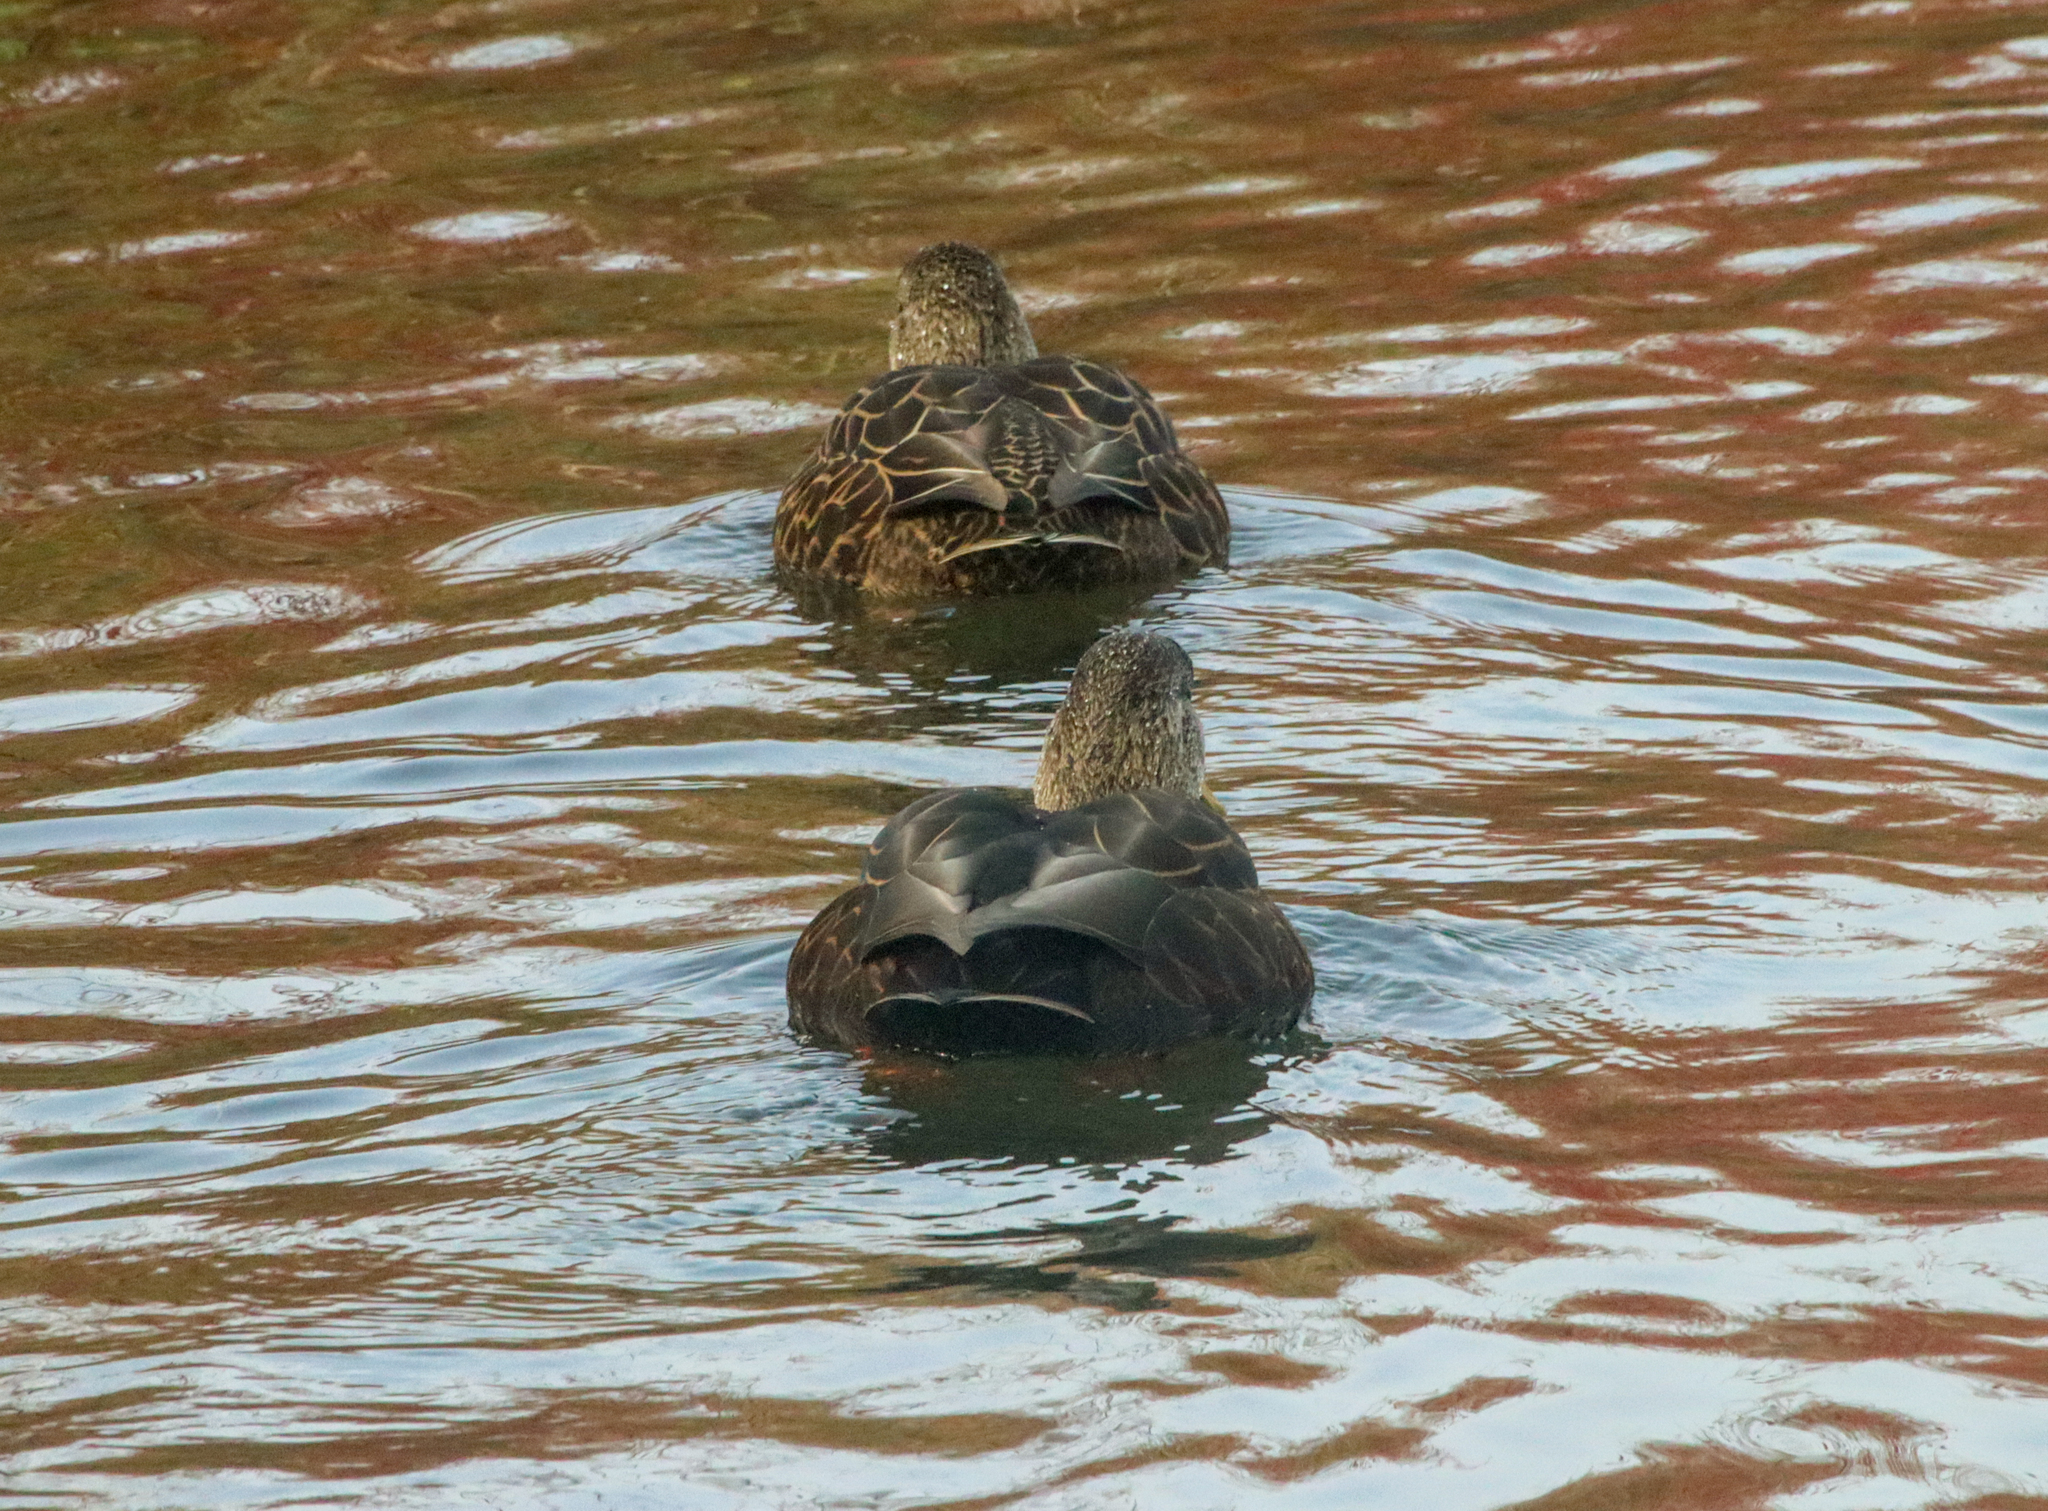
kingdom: Animalia
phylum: Chordata
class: Aves
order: Anseriformes
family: Anatidae
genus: Anas
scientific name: Anas rubripes
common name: American black duck
